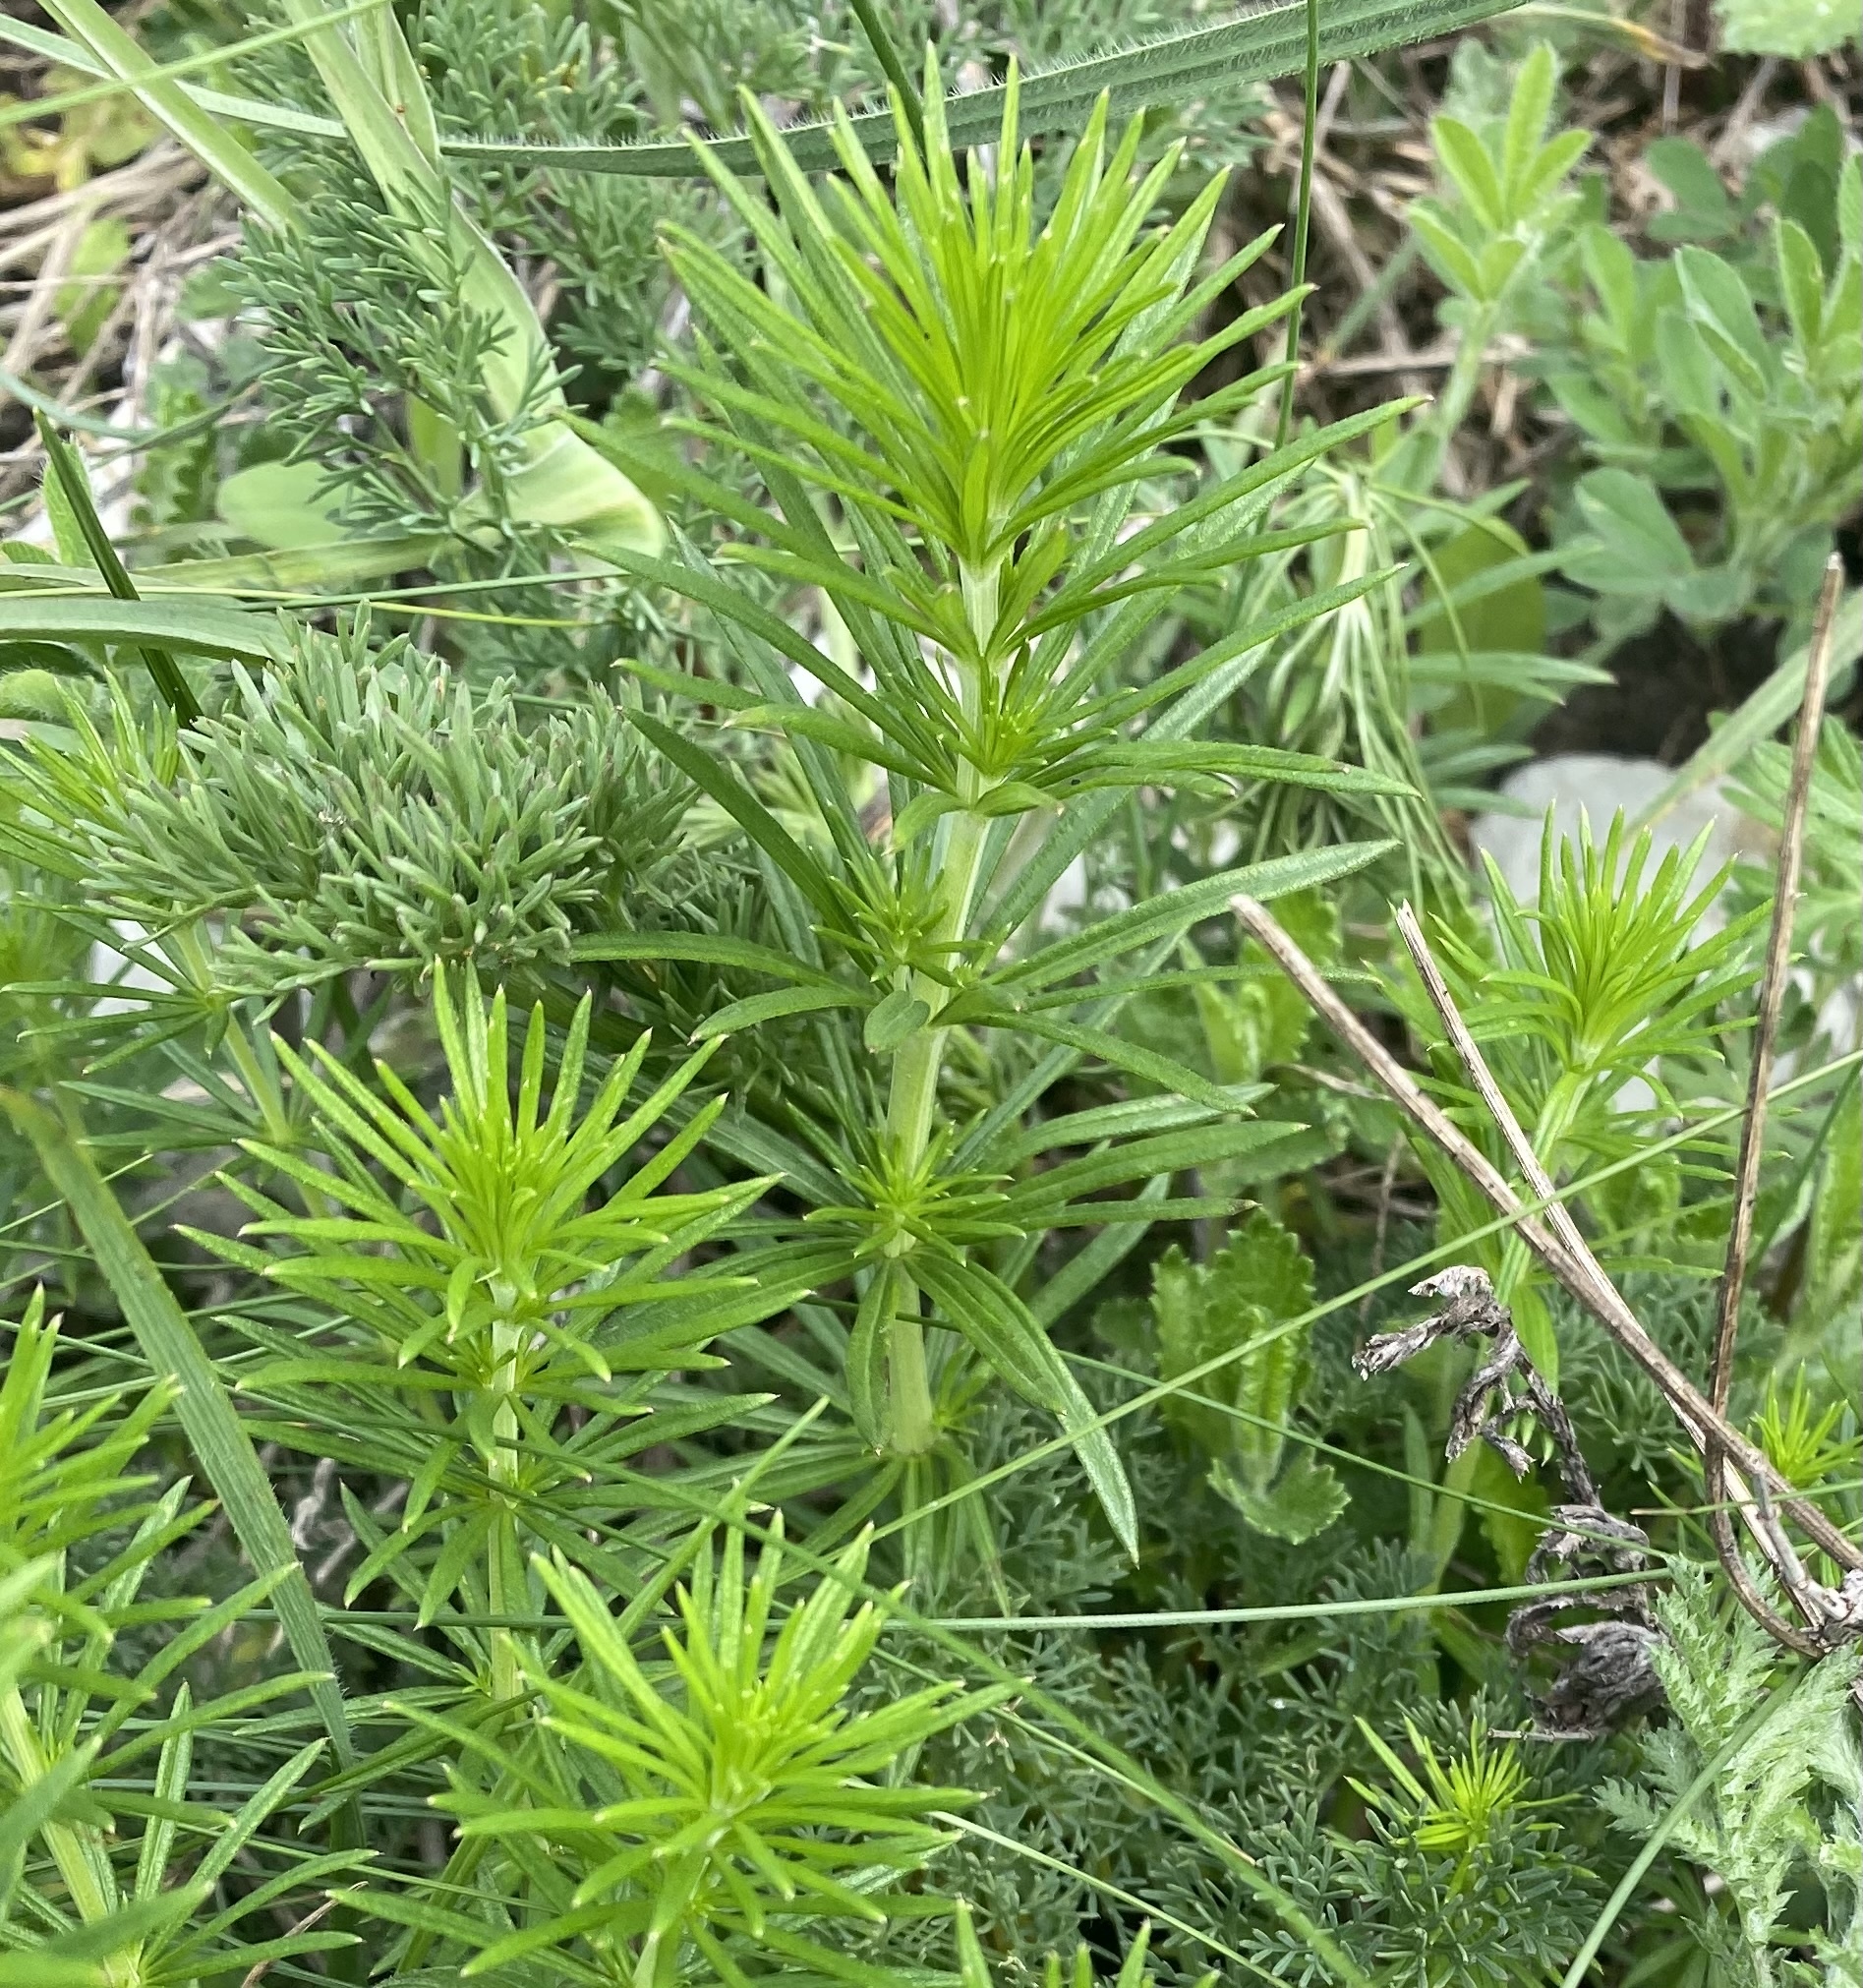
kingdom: Plantae
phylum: Tracheophyta
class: Magnoliopsida
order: Gentianales
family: Rubiaceae
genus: Galium
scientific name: Galium verum
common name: Lady's bedstraw
